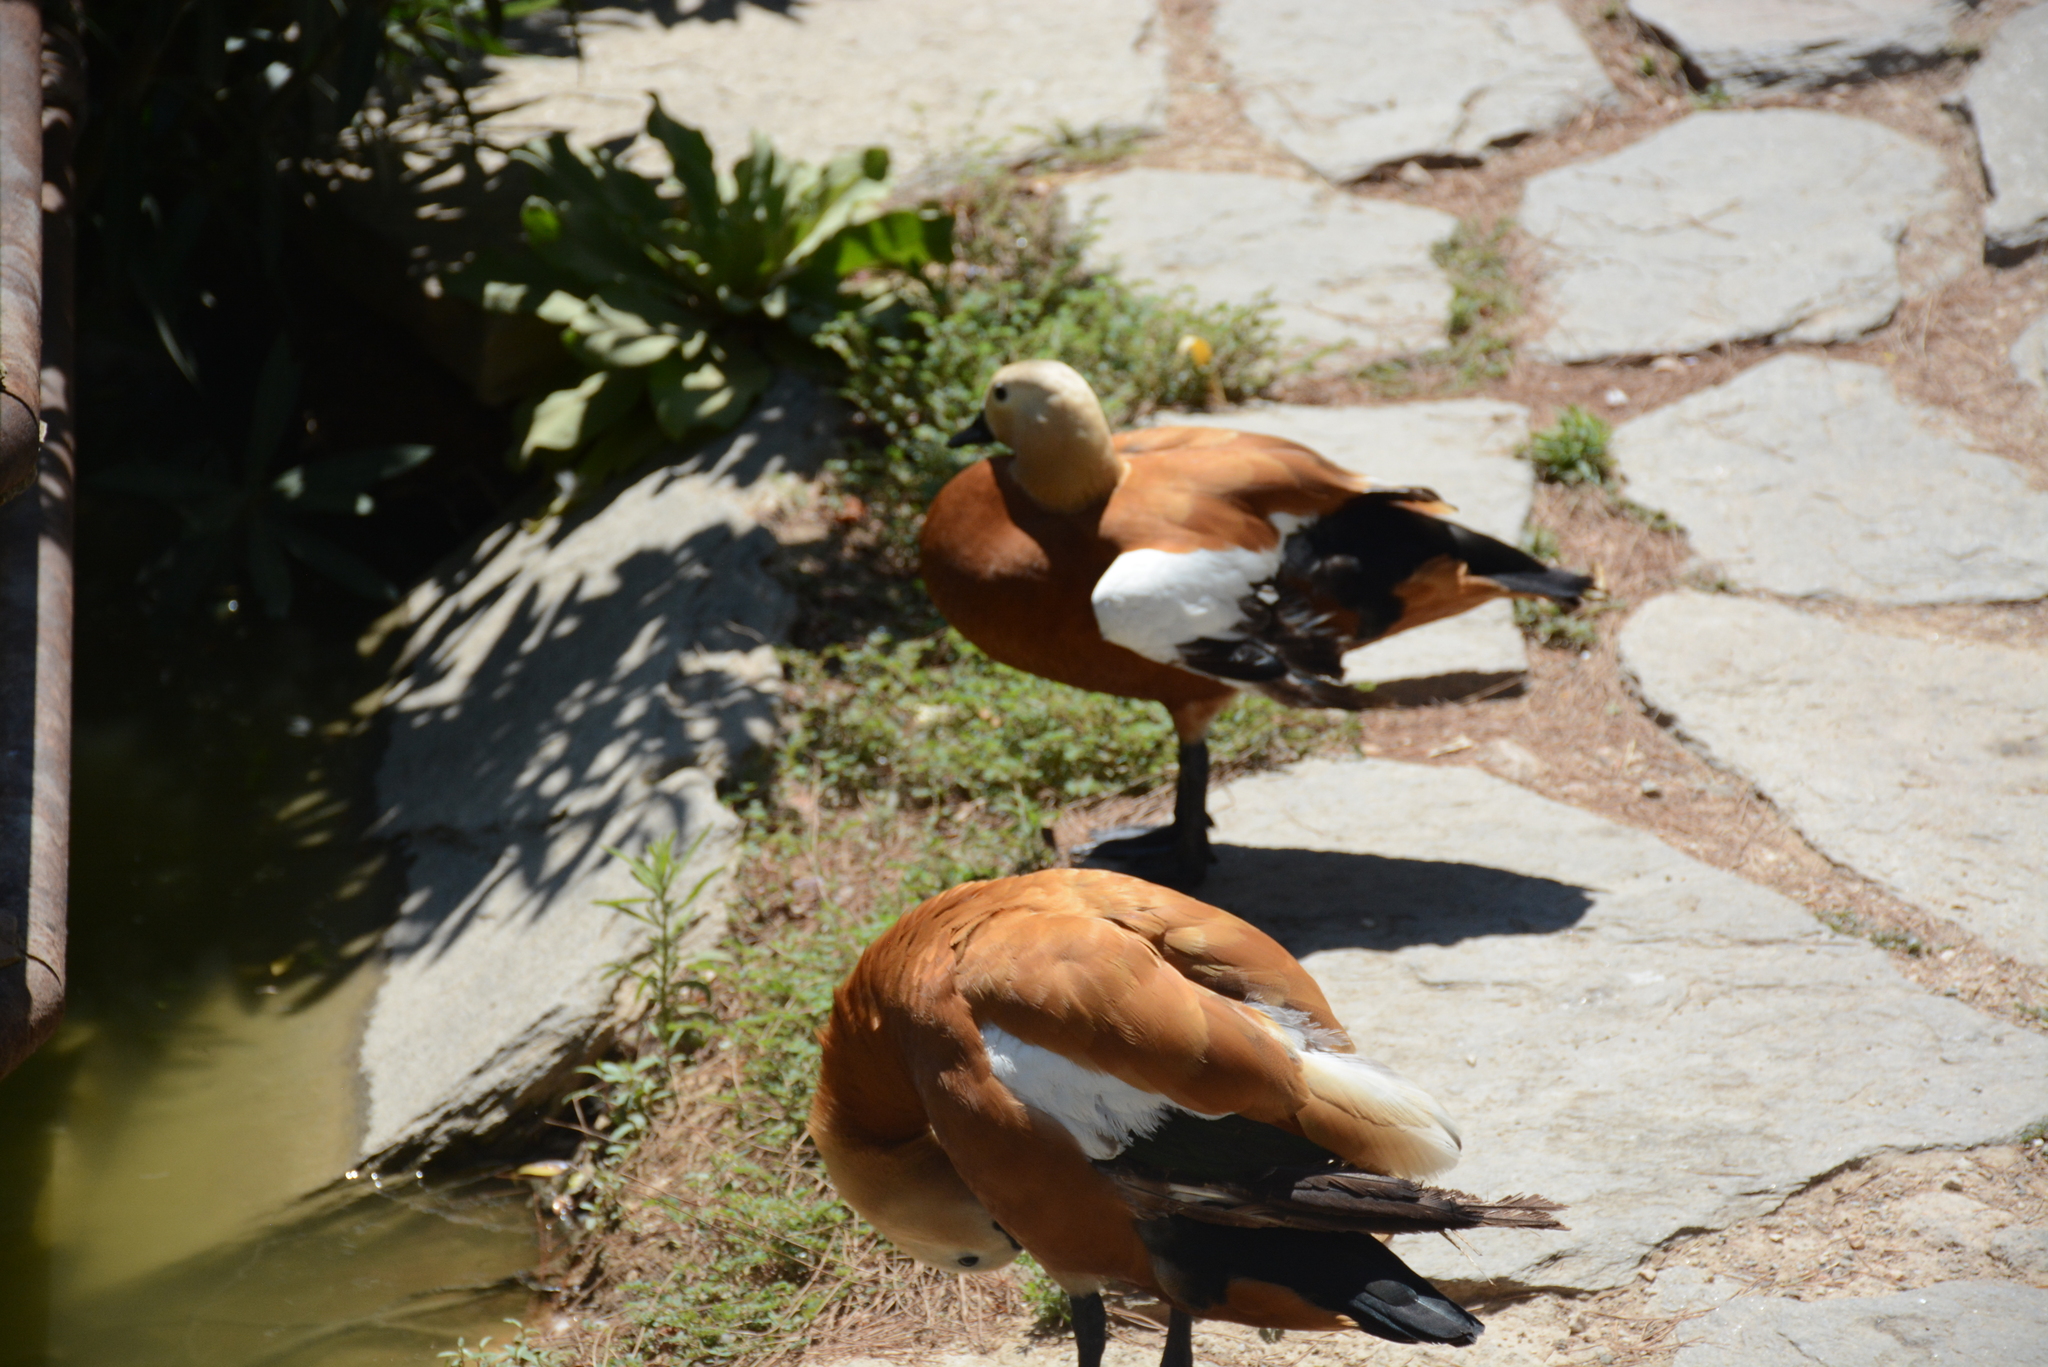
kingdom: Animalia
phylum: Chordata
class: Aves
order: Anseriformes
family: Anatidae
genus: Tadorna
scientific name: Tadorna ferruginea
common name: Ruddy shelduck
